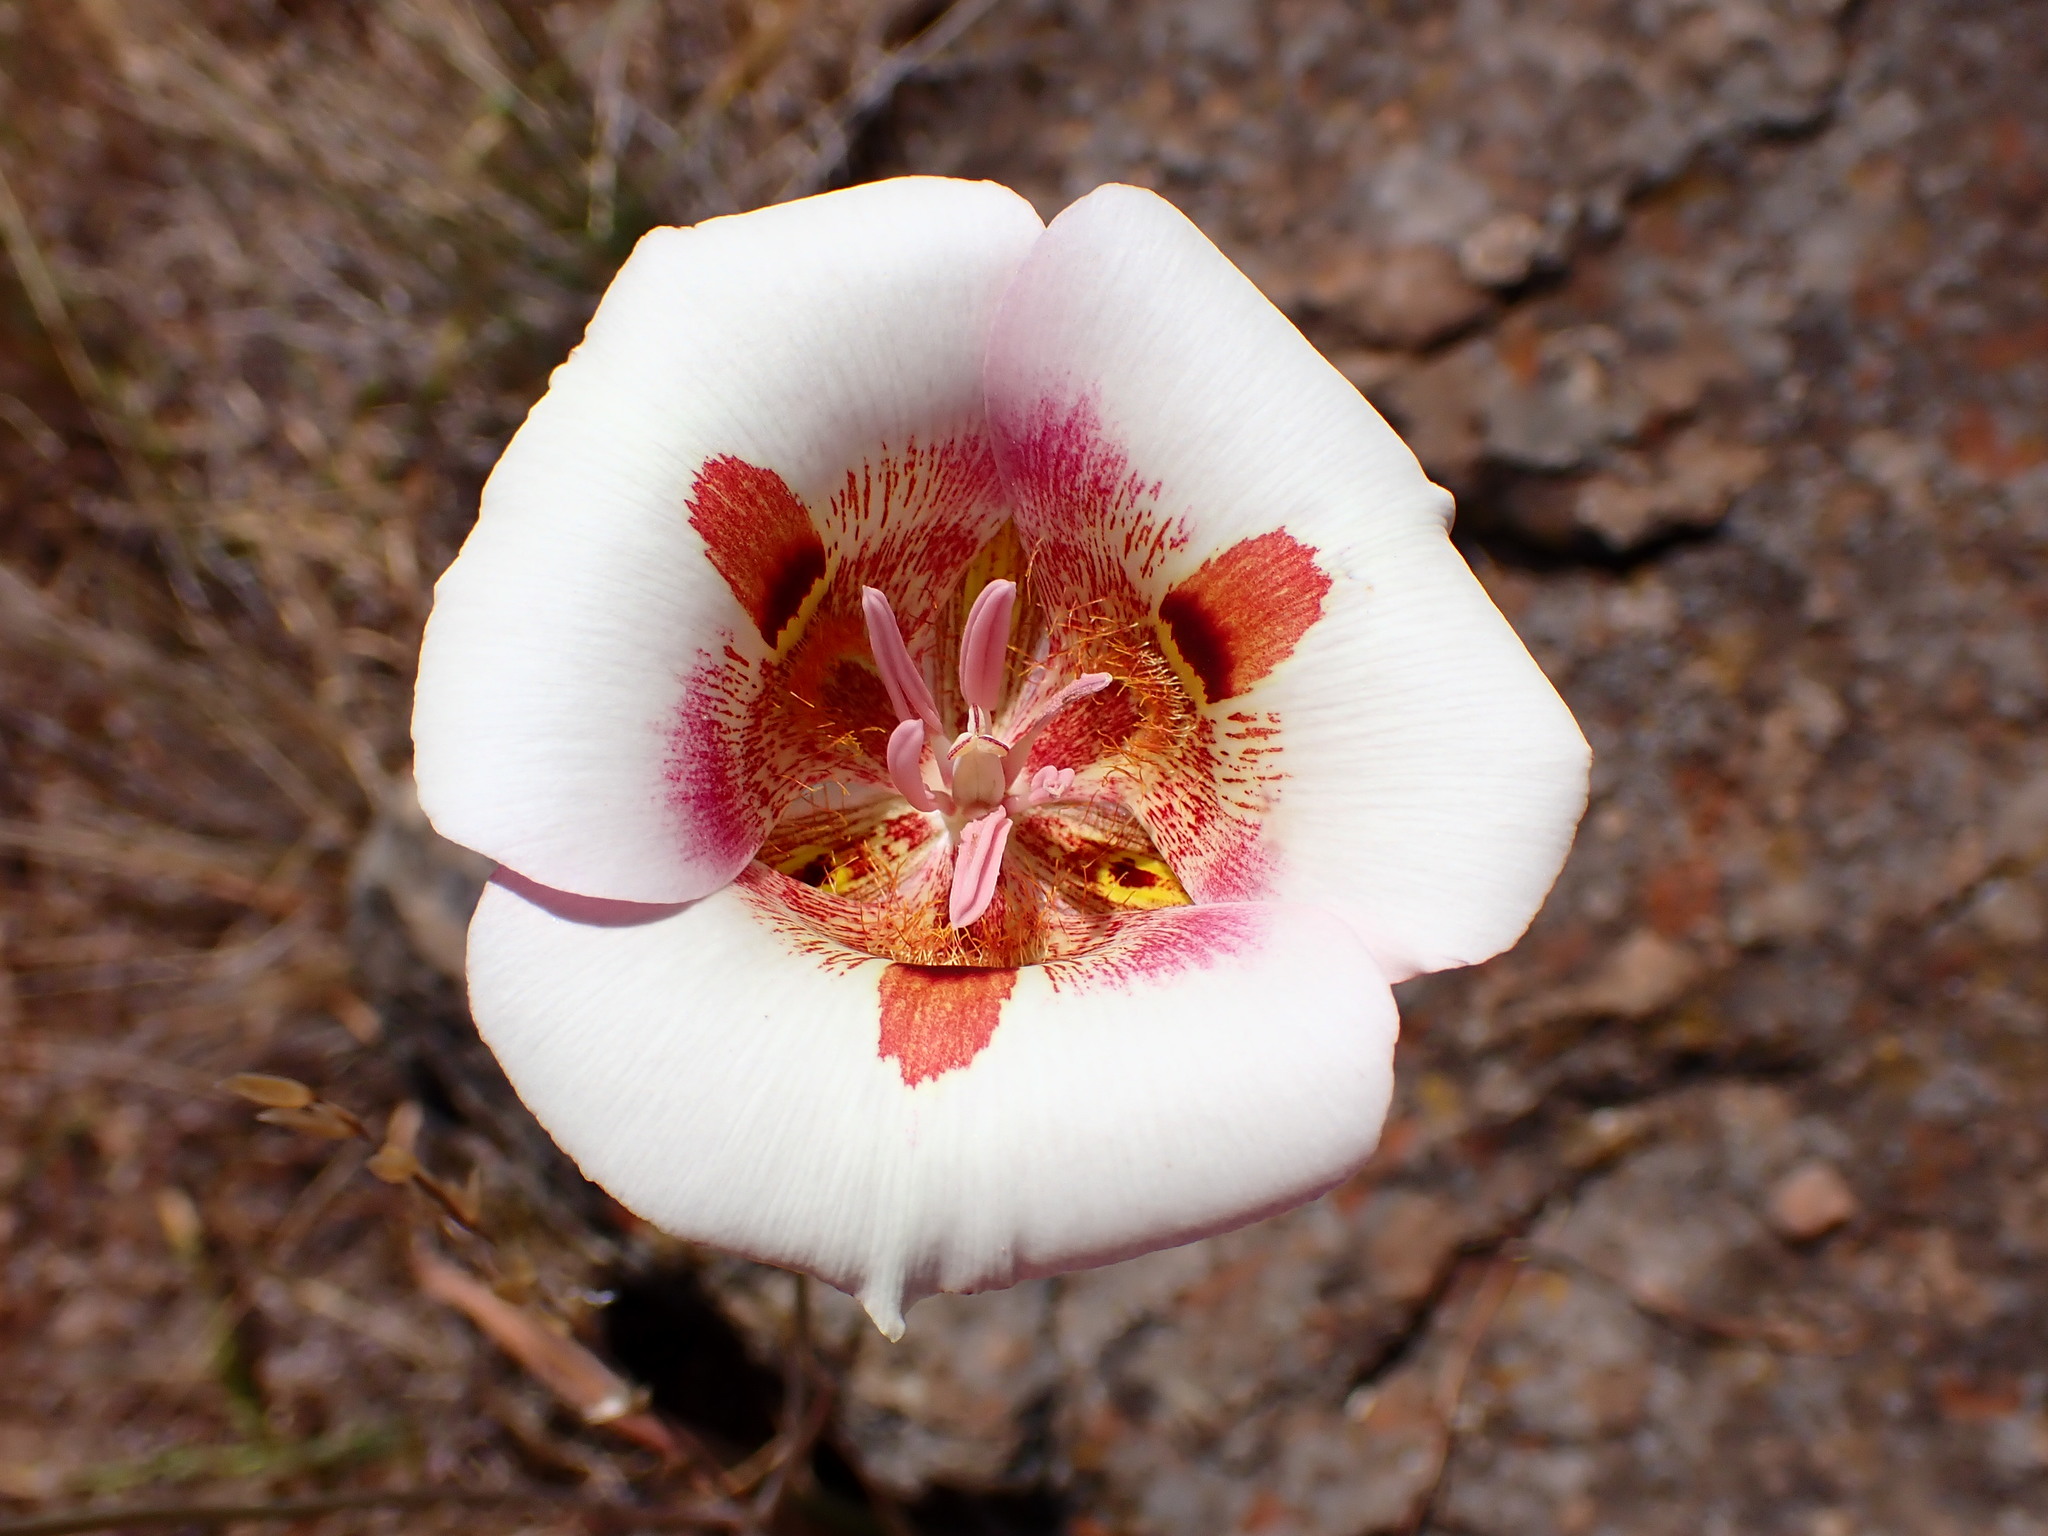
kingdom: Plantae
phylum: Tracheophyta
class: Liliopsida
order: Liliales
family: Liliaceae
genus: Calochortus
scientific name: Calochortus argillosus
